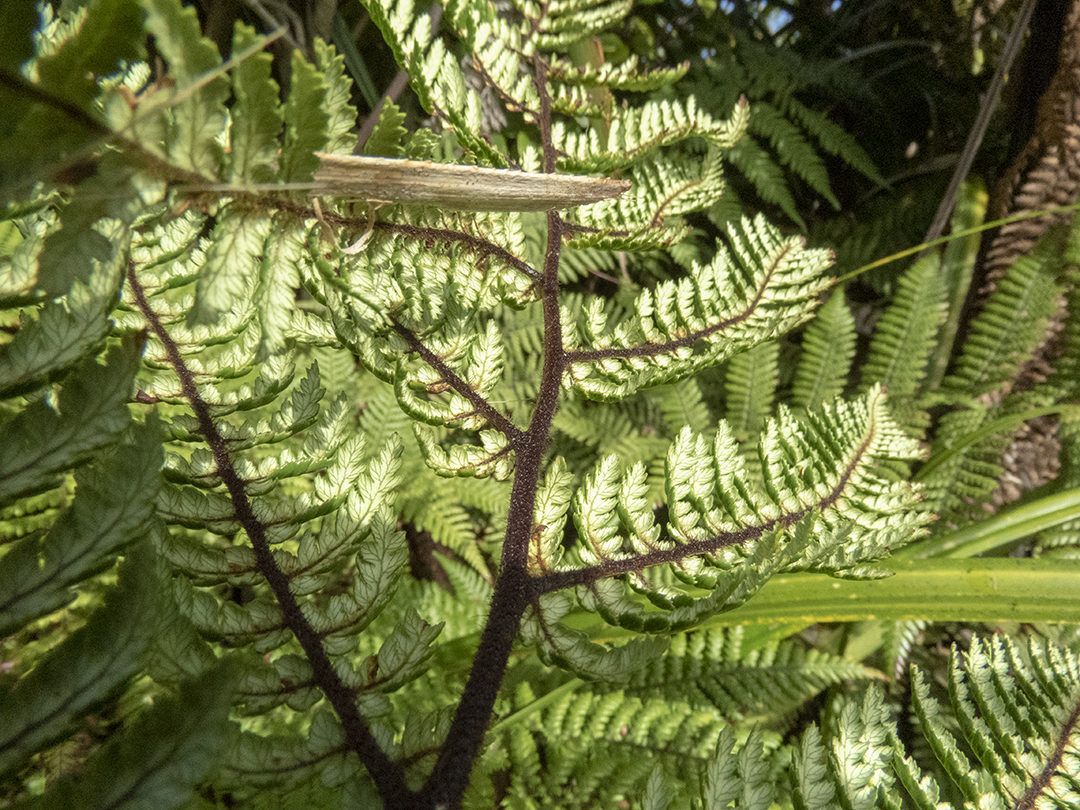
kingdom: Plantae
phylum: Tracheophyta
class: Polypodiopsida
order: Cyatheales
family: Dicksoniaceae
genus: Dicksonia
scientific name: Dicksonia squarrosa
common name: Hard treefern
